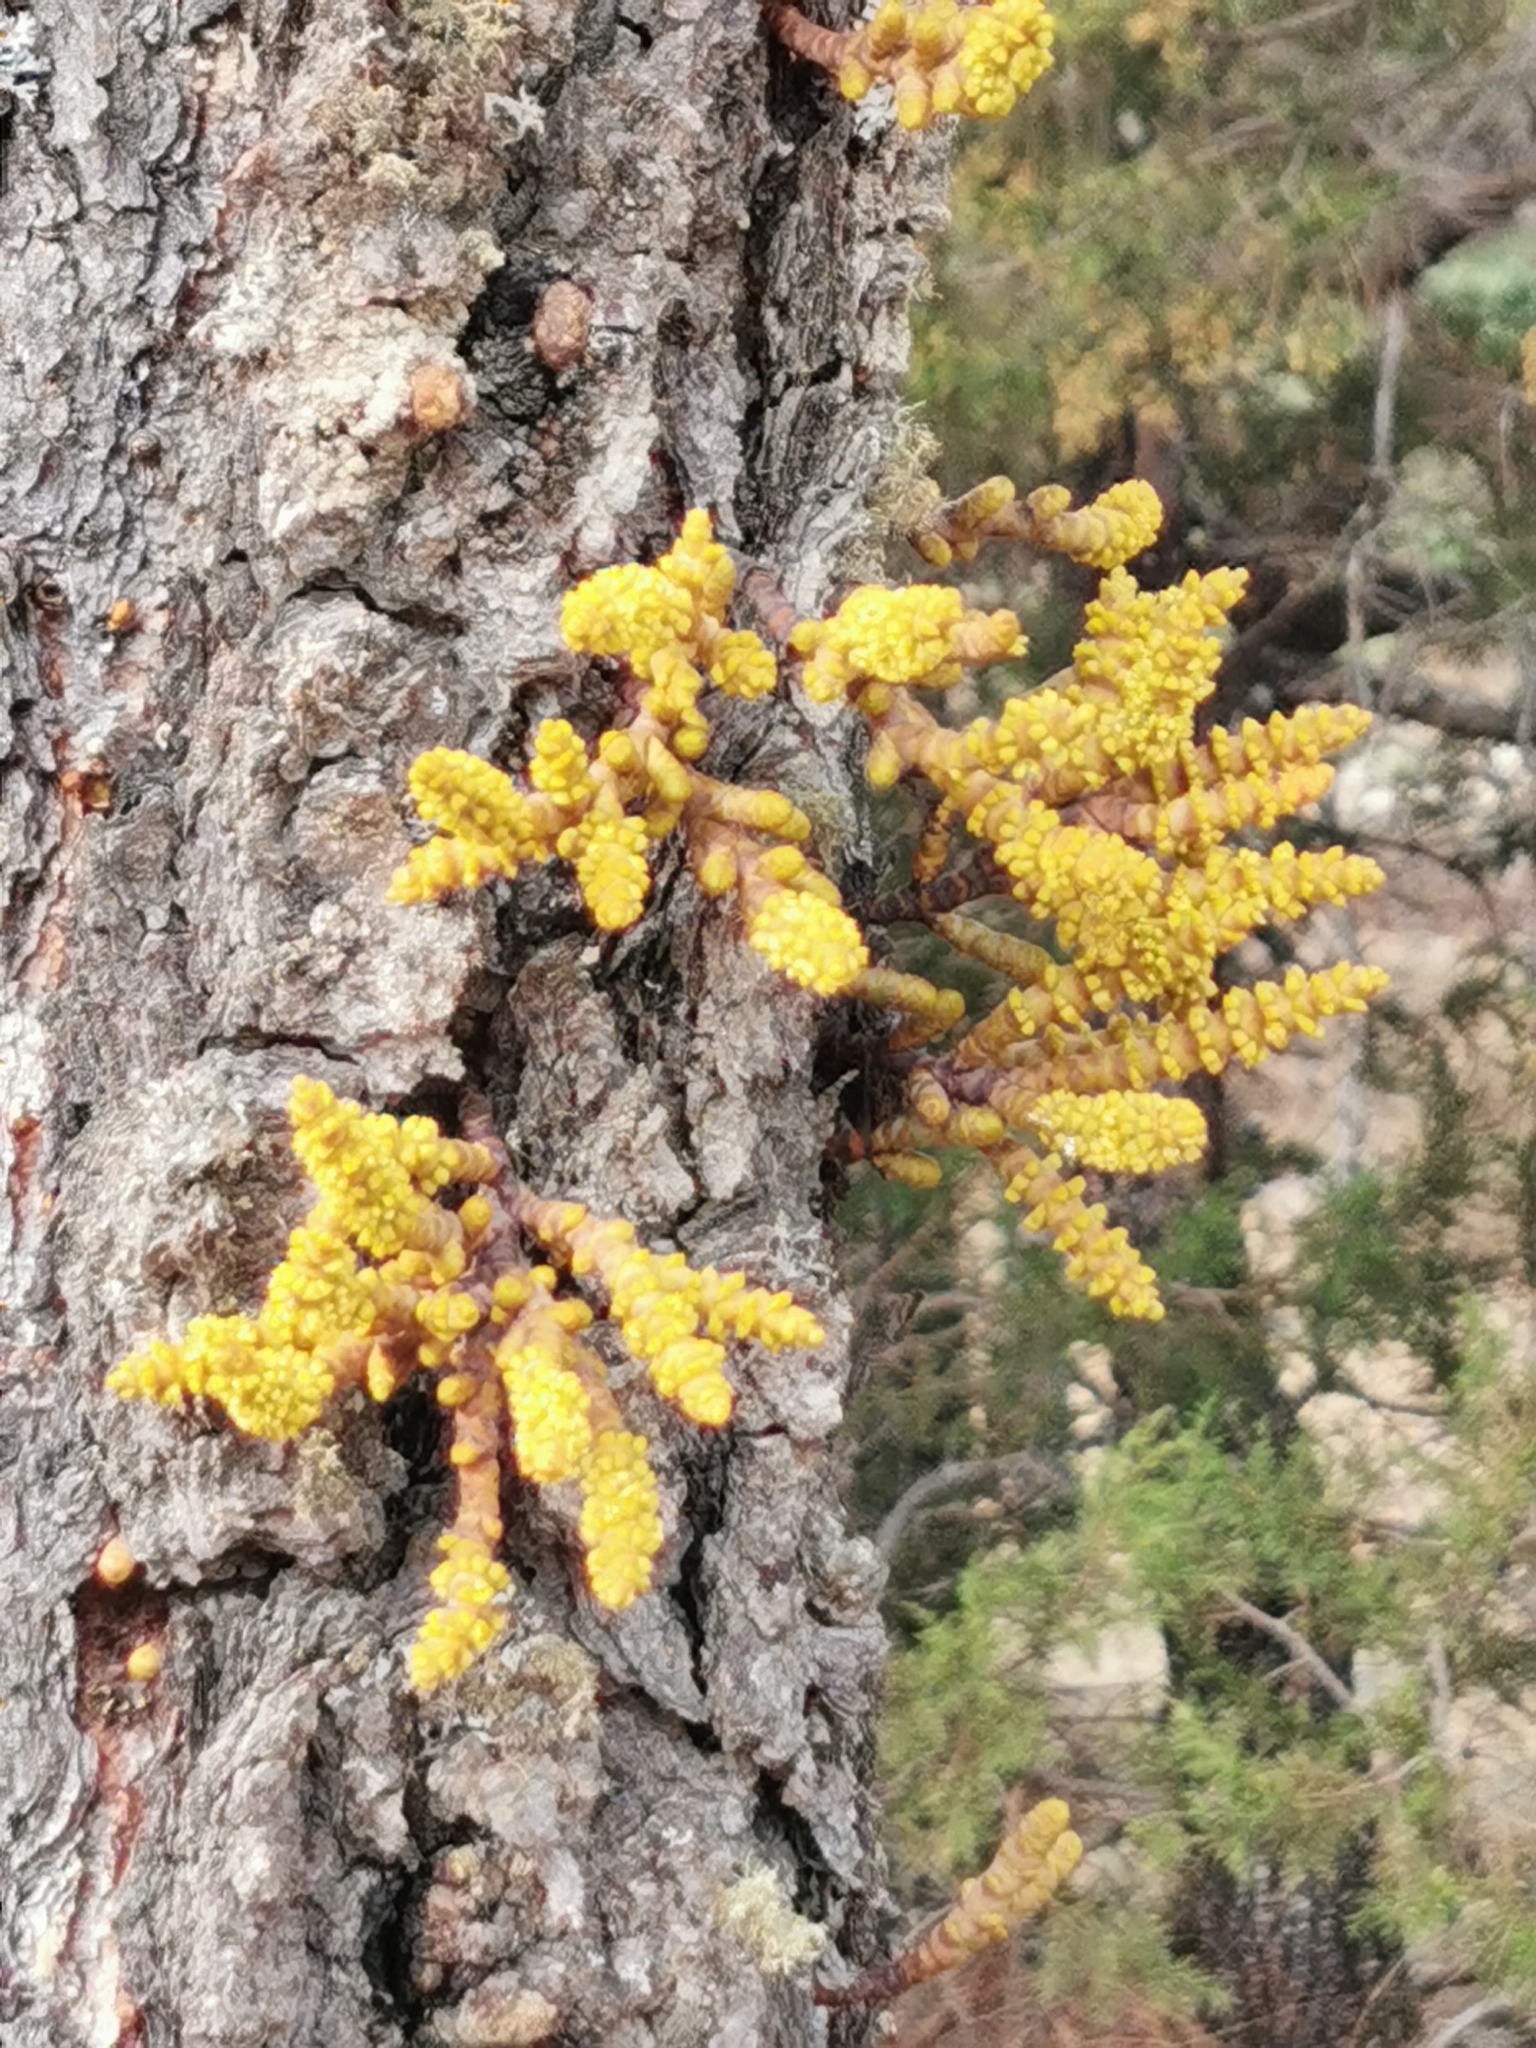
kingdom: Plantae
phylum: Tracheophyta
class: Magnoliopsida
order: Santalales
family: Viscaceae
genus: Arceuthobium
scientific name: Arceuthobium verticilliflora
